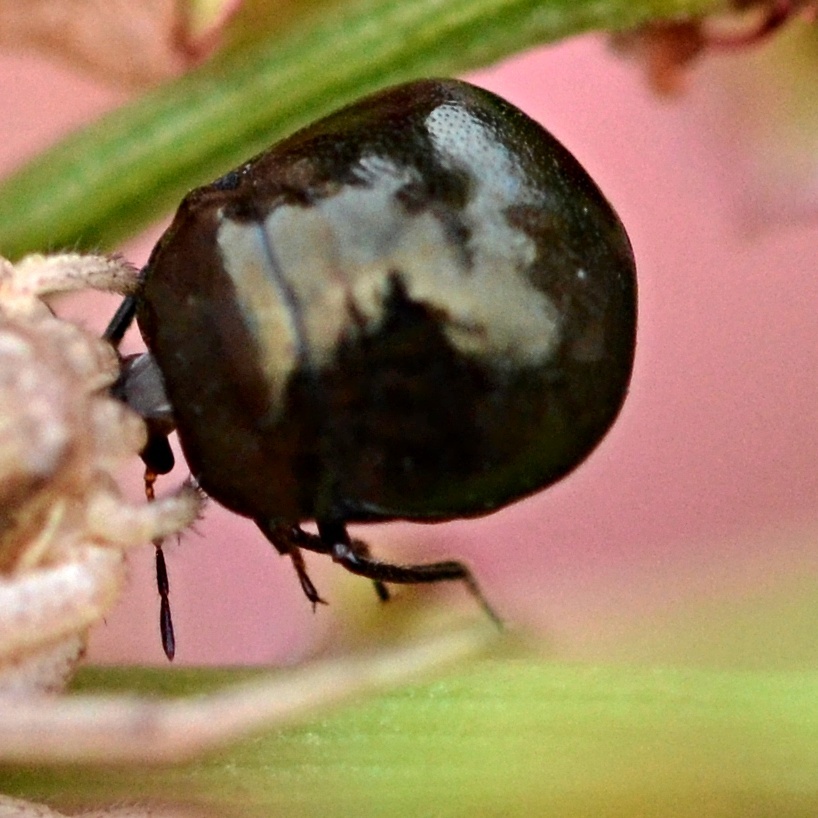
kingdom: Animalia
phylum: Arthropoda
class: Insecta
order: Hemiptera
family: Plataspidae
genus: Coptosoma
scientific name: Coptosoma scutellatum
